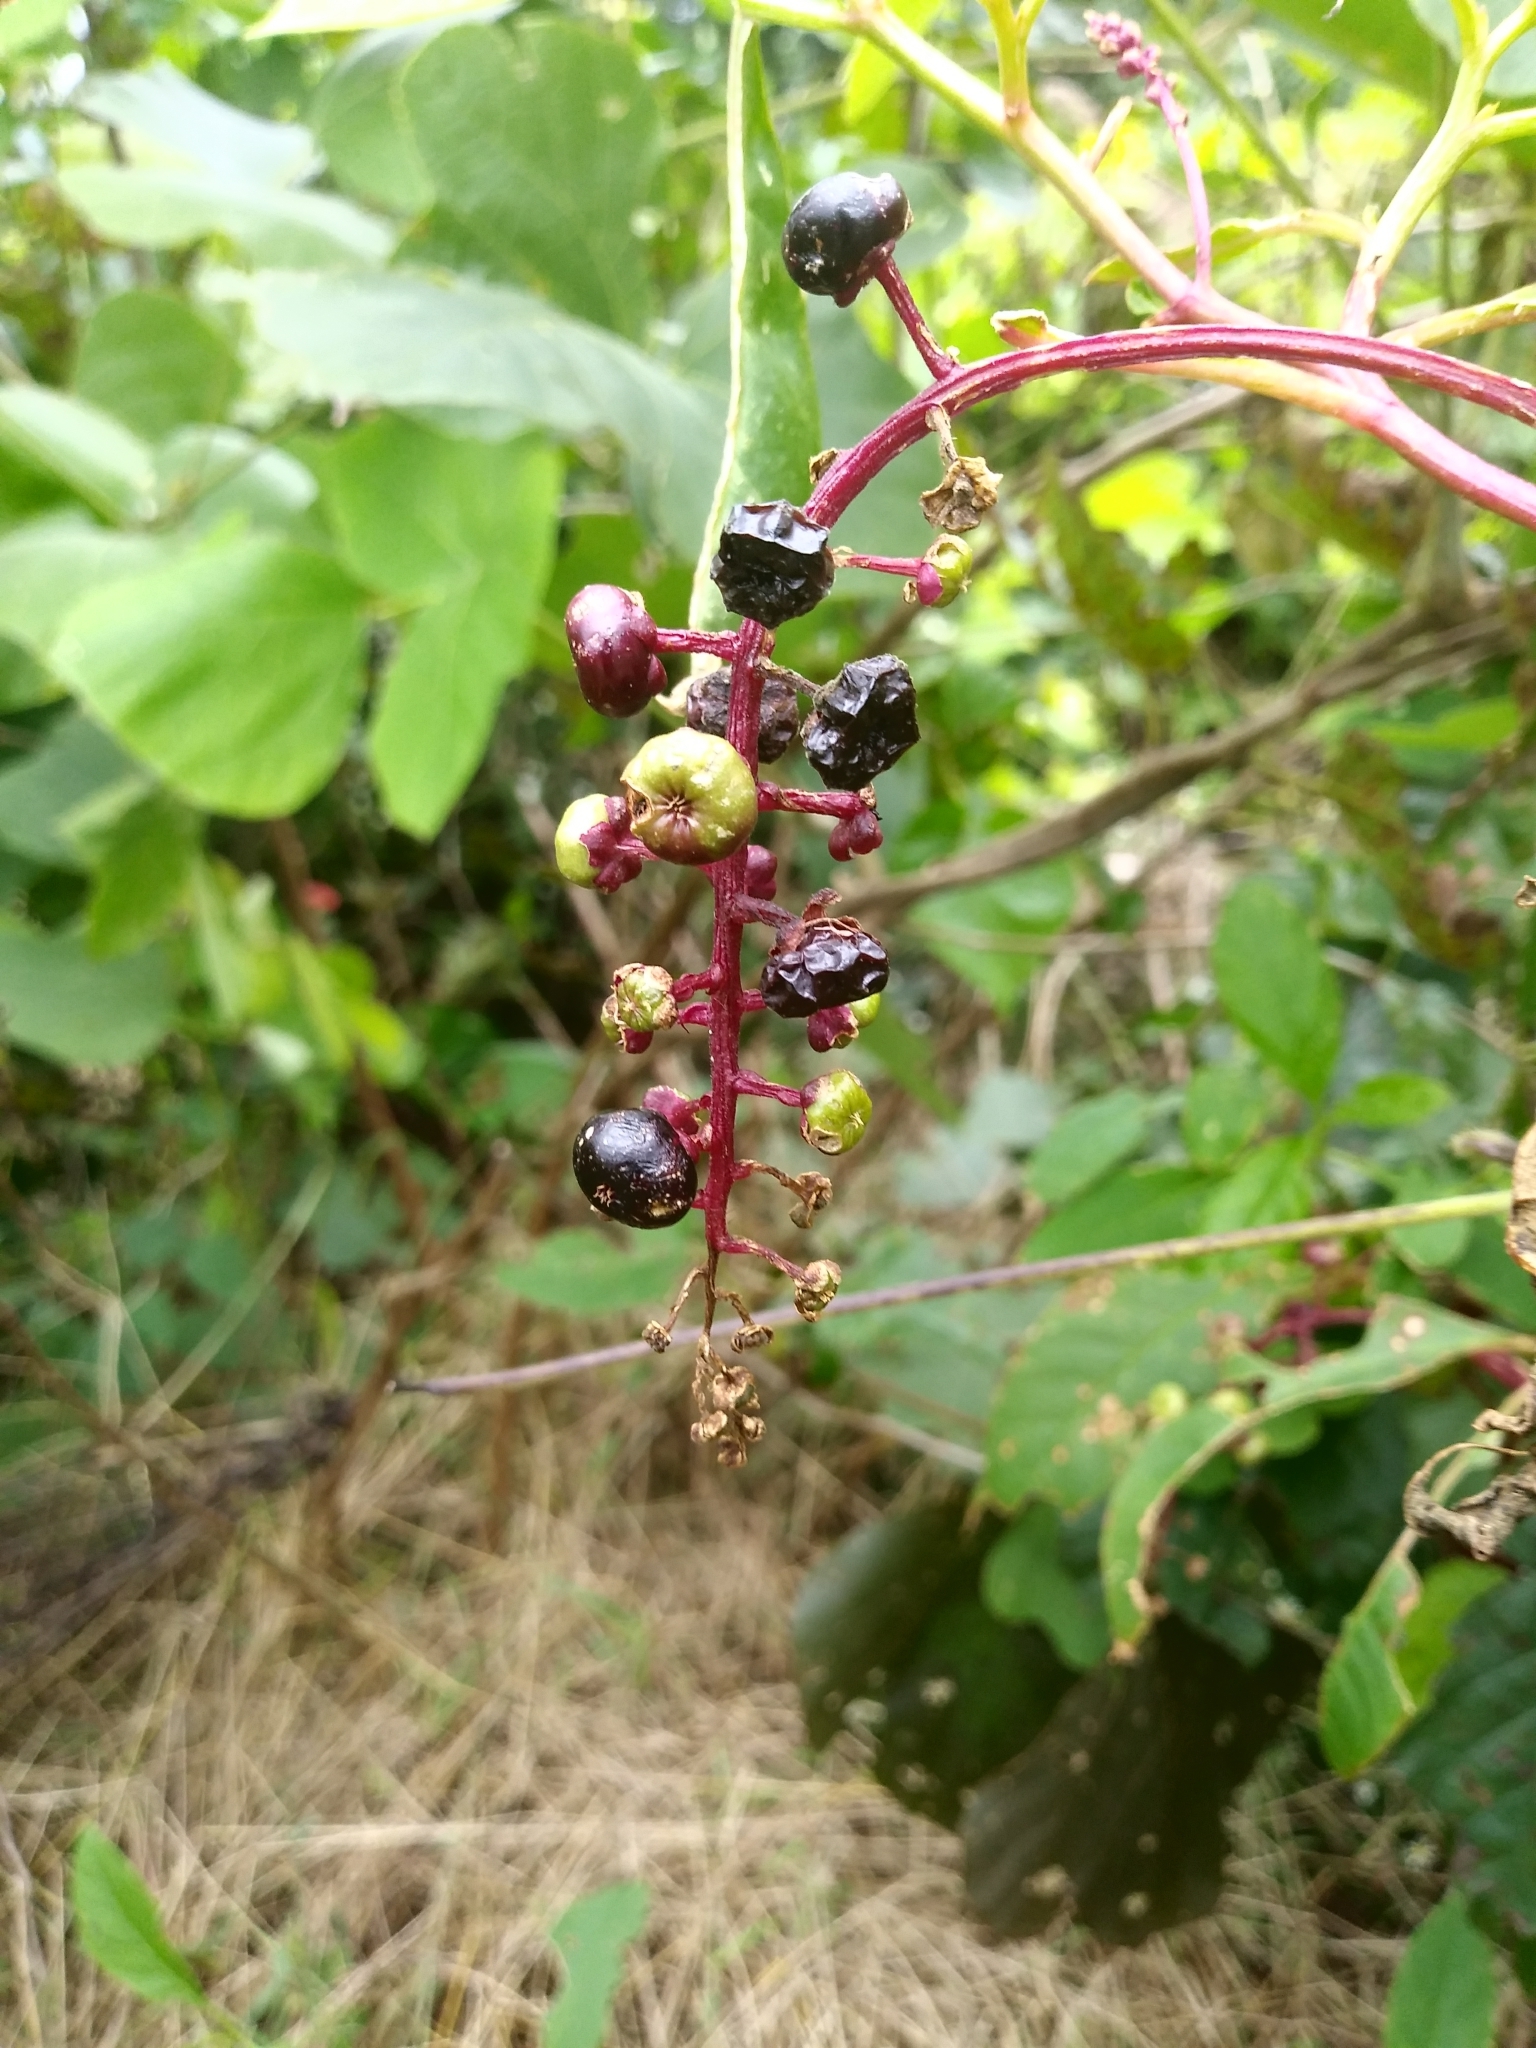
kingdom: Plantae
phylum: Tracheophyta
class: Magnoliopsida
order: Caryophyllales
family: Phytolaccaceae
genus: Phytolacca
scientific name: Phytolacca americana
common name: American pokeweed
